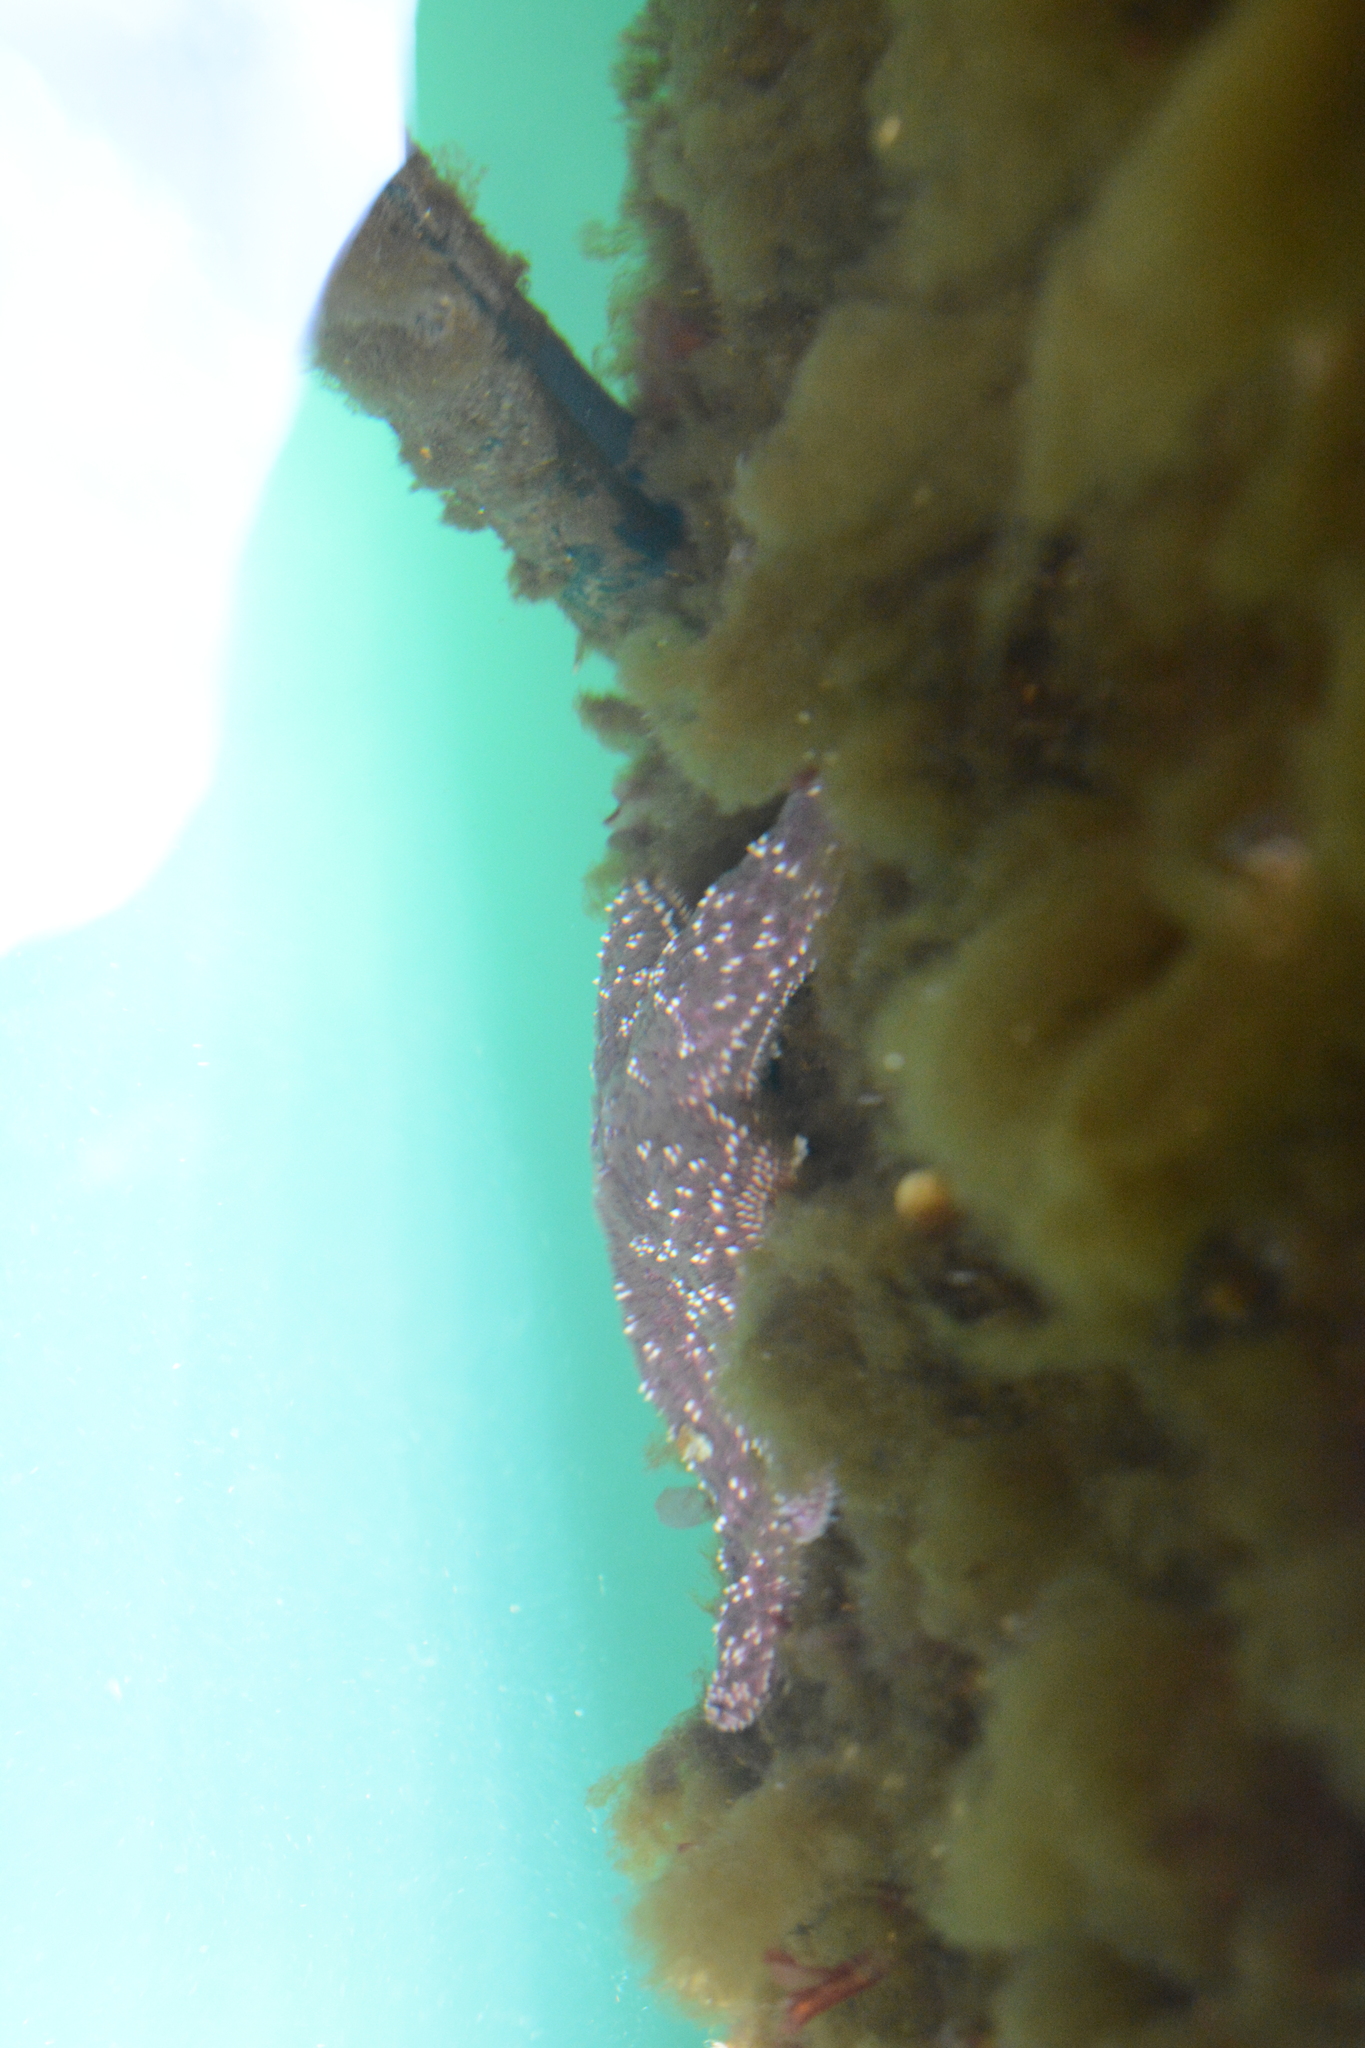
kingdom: Animalia
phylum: Echinodermata
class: Asteroidea
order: Forcipulatida
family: Asteriidae
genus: Pisaster
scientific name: Pisaster ochraceus
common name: Ochre stars
